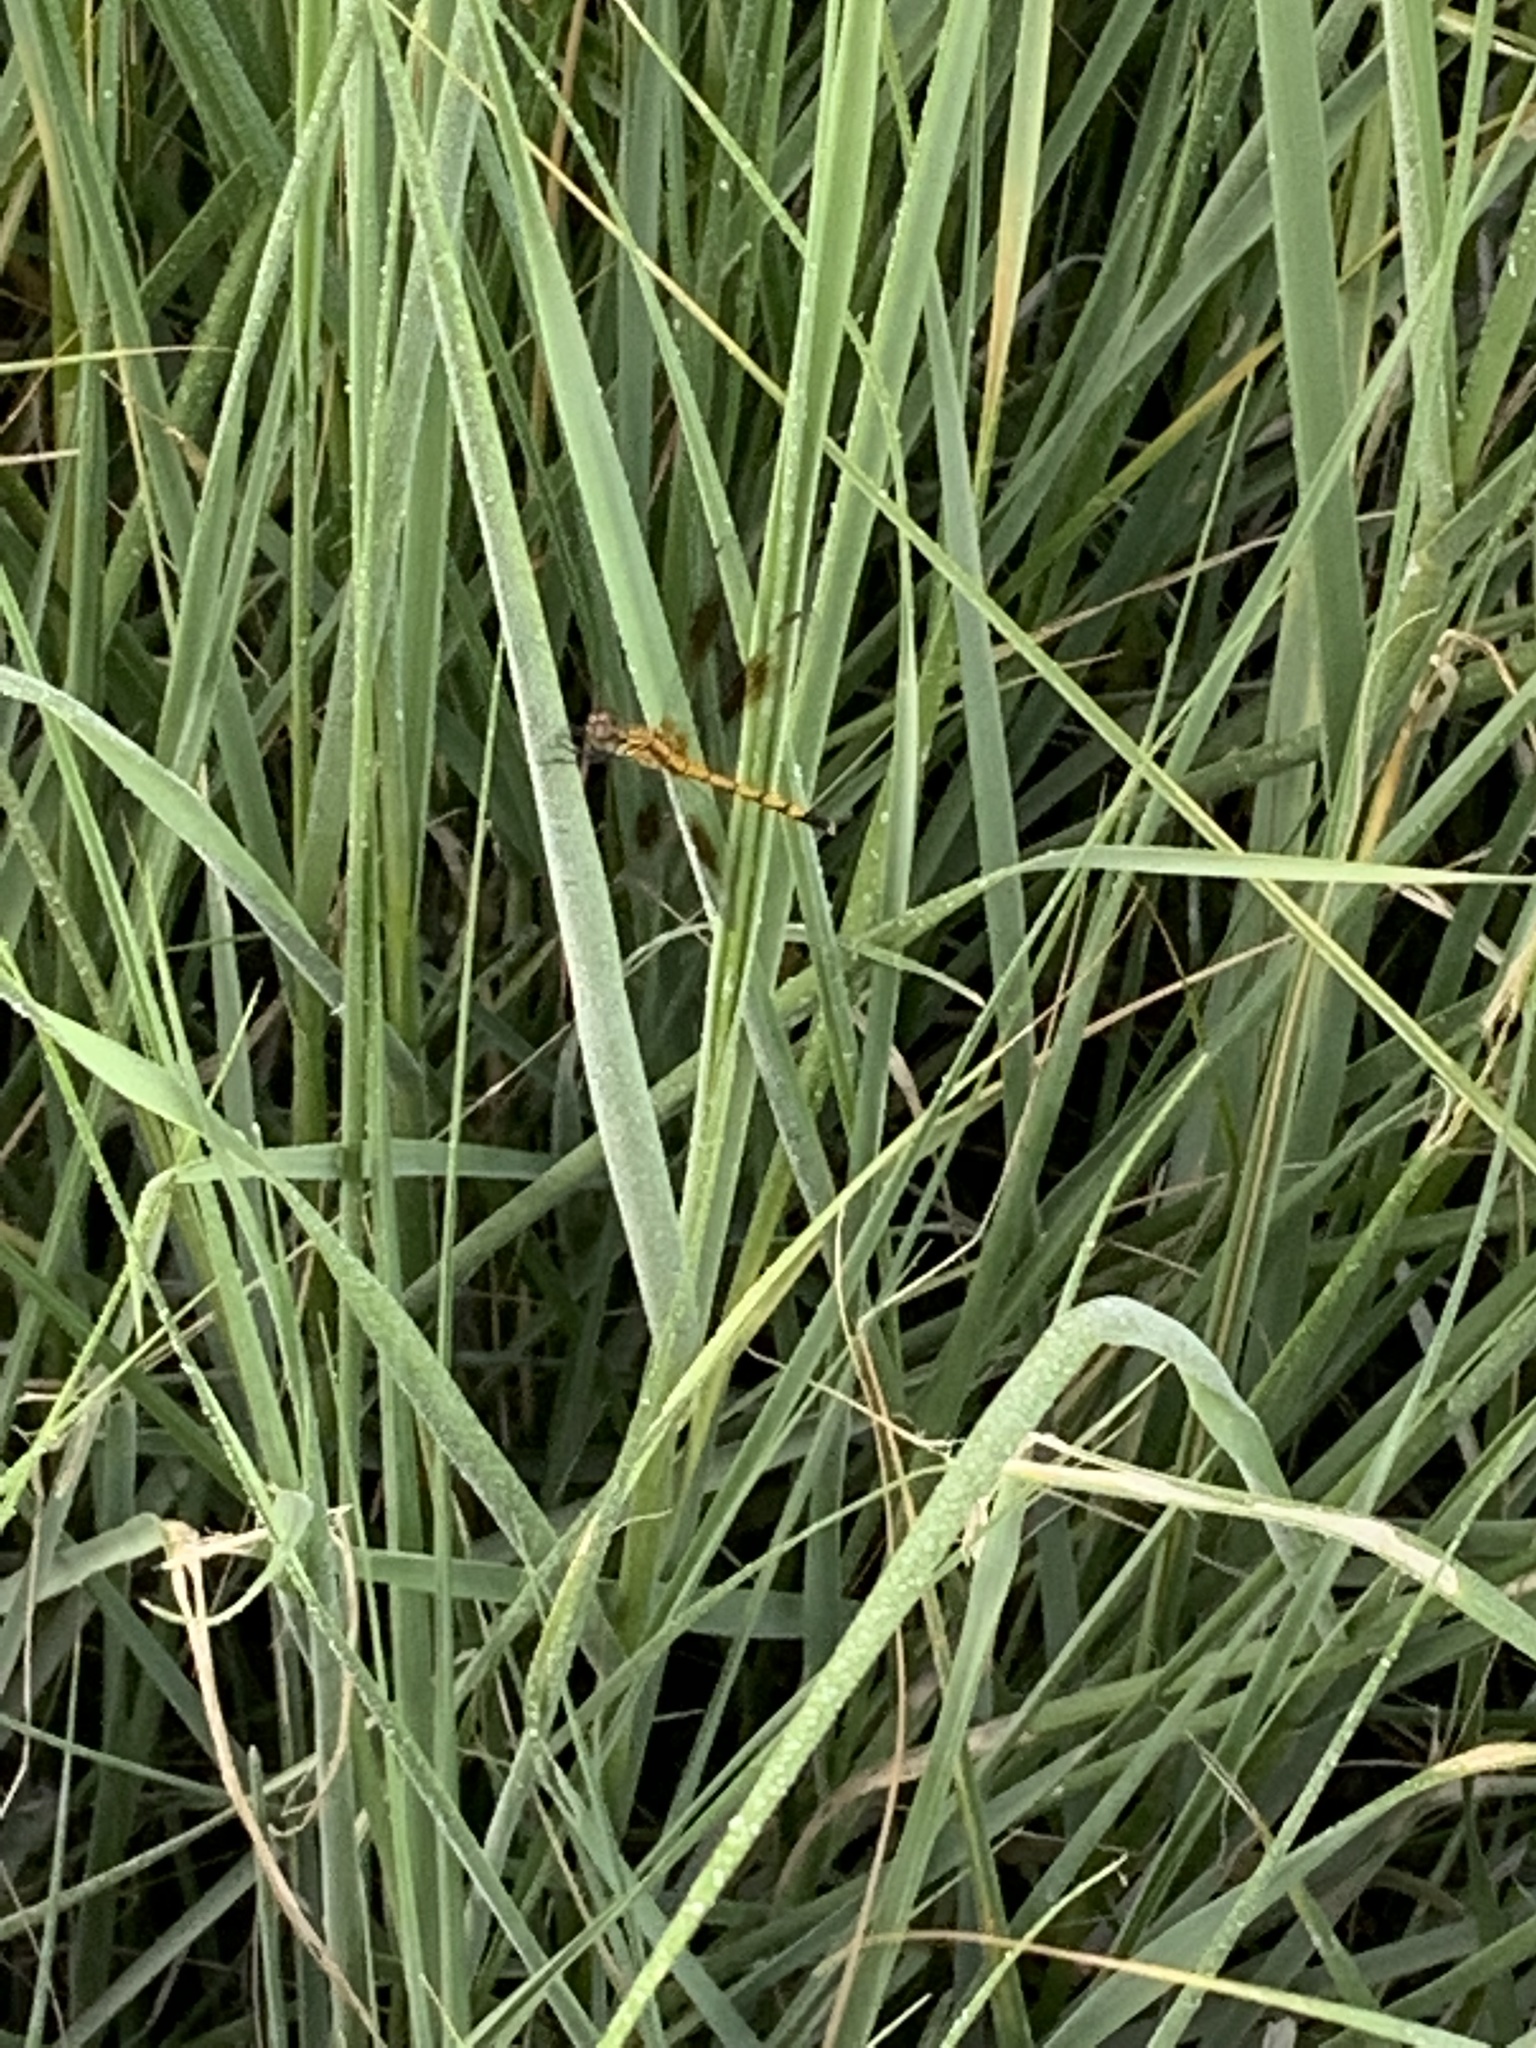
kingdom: Animalia
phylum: Arthropoda
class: Insecta
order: Odonata
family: Libellulidae
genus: Erythrodiplax
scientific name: Erythrodiplax berenice
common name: Seaside dragonlet
